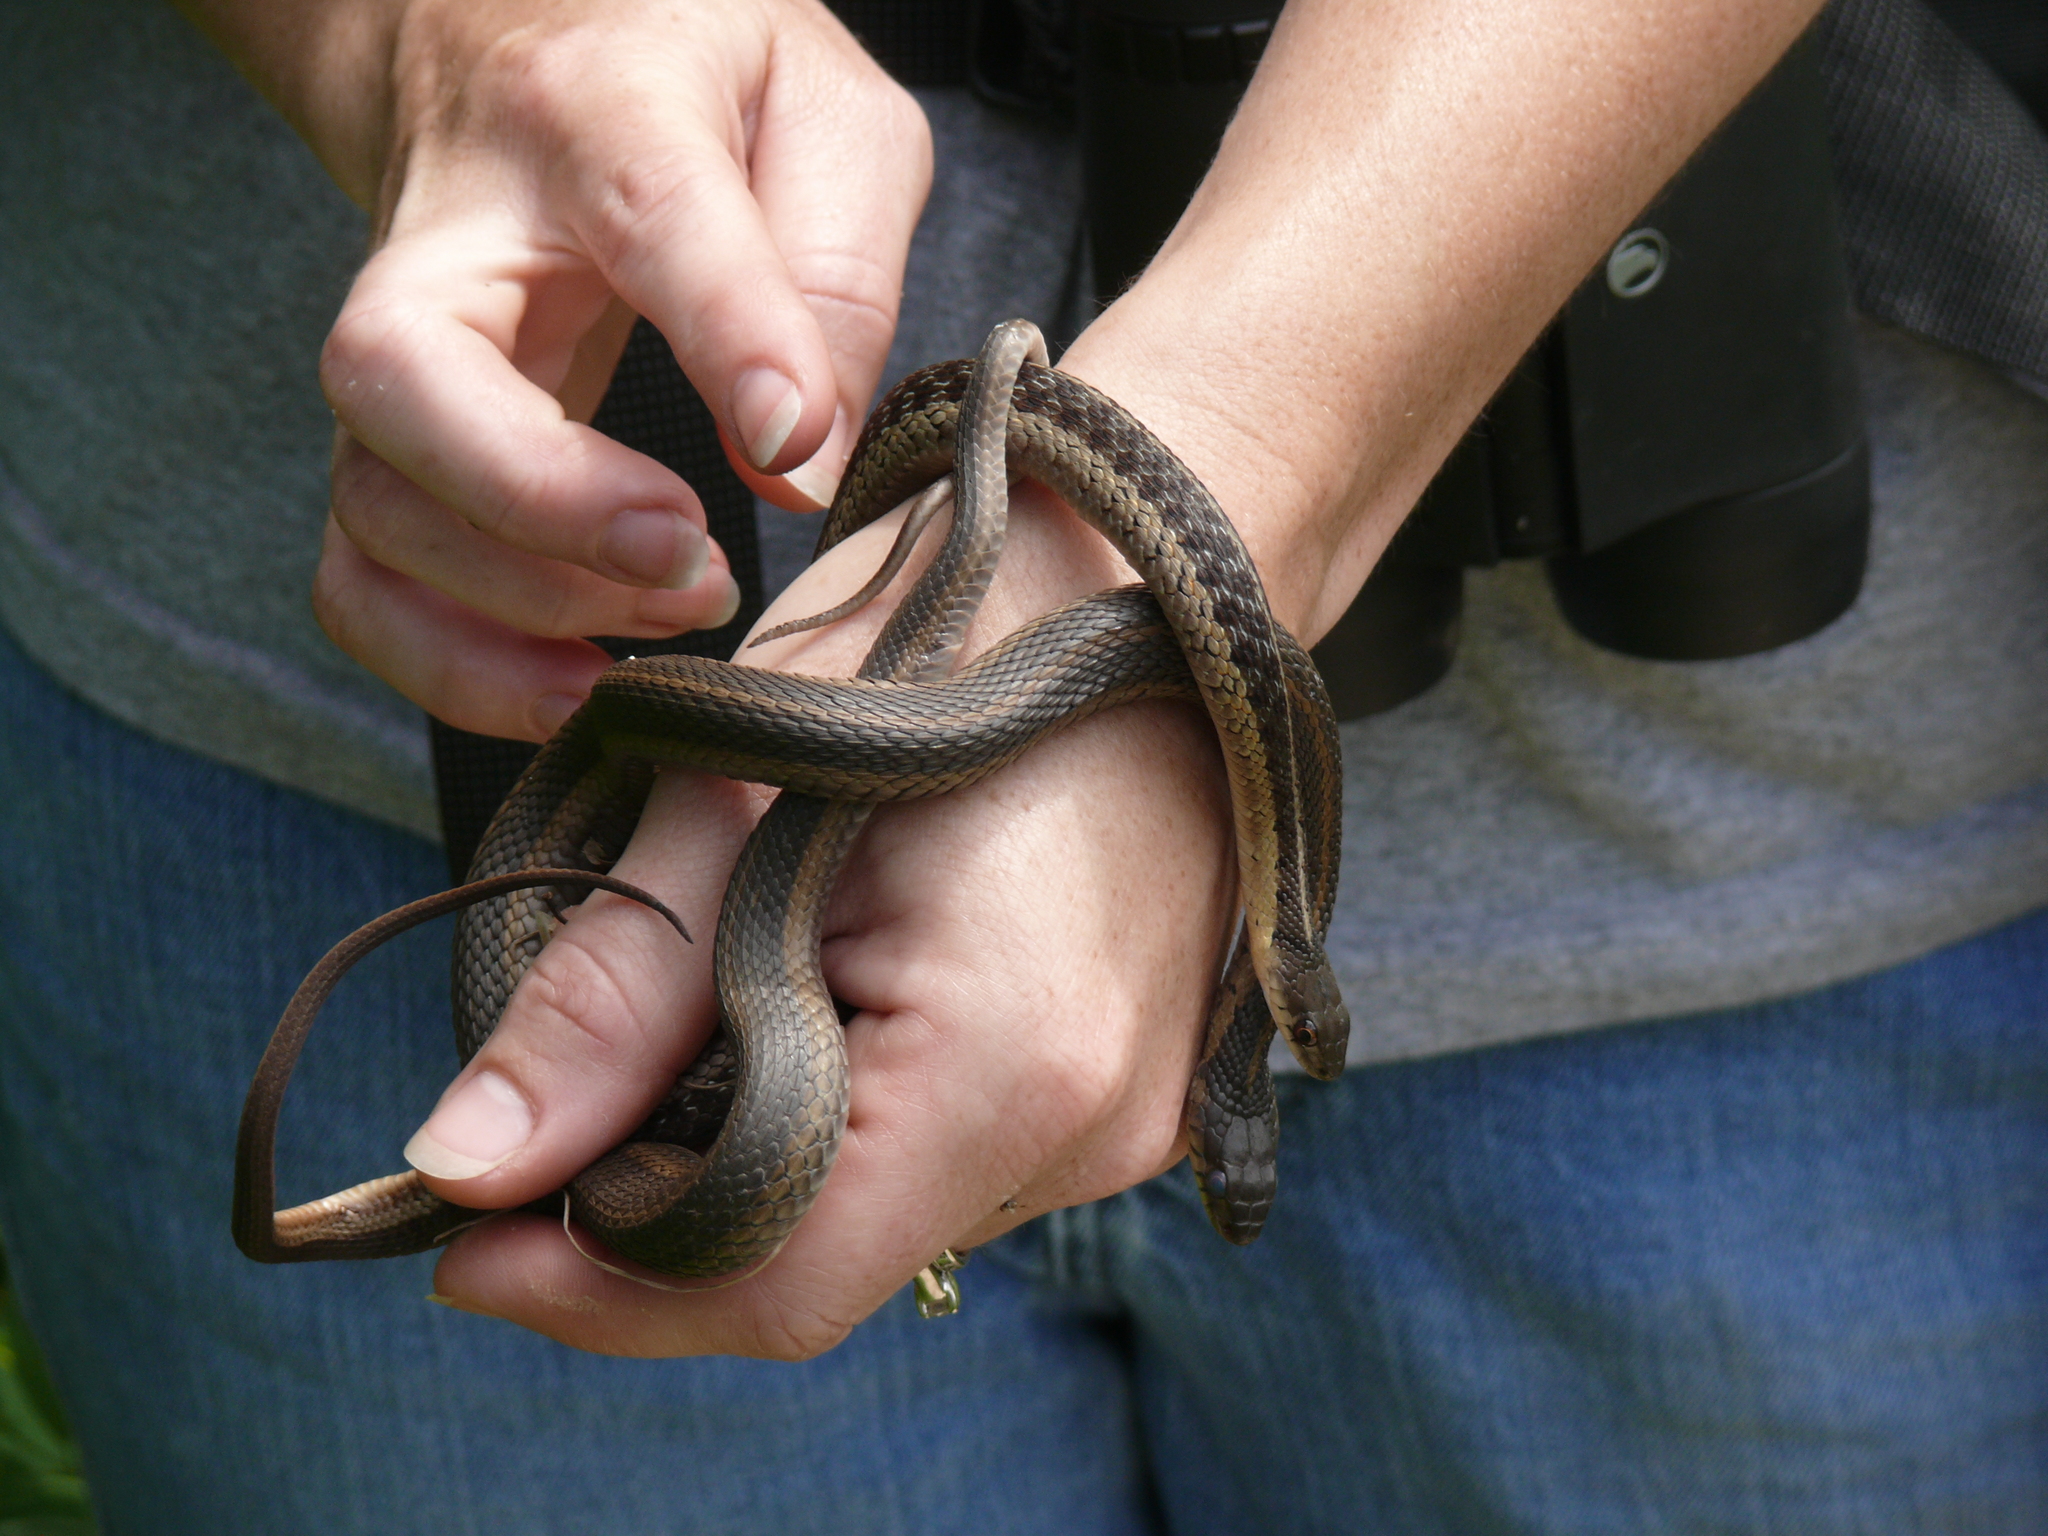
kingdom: Animalia
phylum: Chordata
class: Squamata
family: Colubridae
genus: Thamnophis
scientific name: Thamnophis sirtalis
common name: Common garter snake
